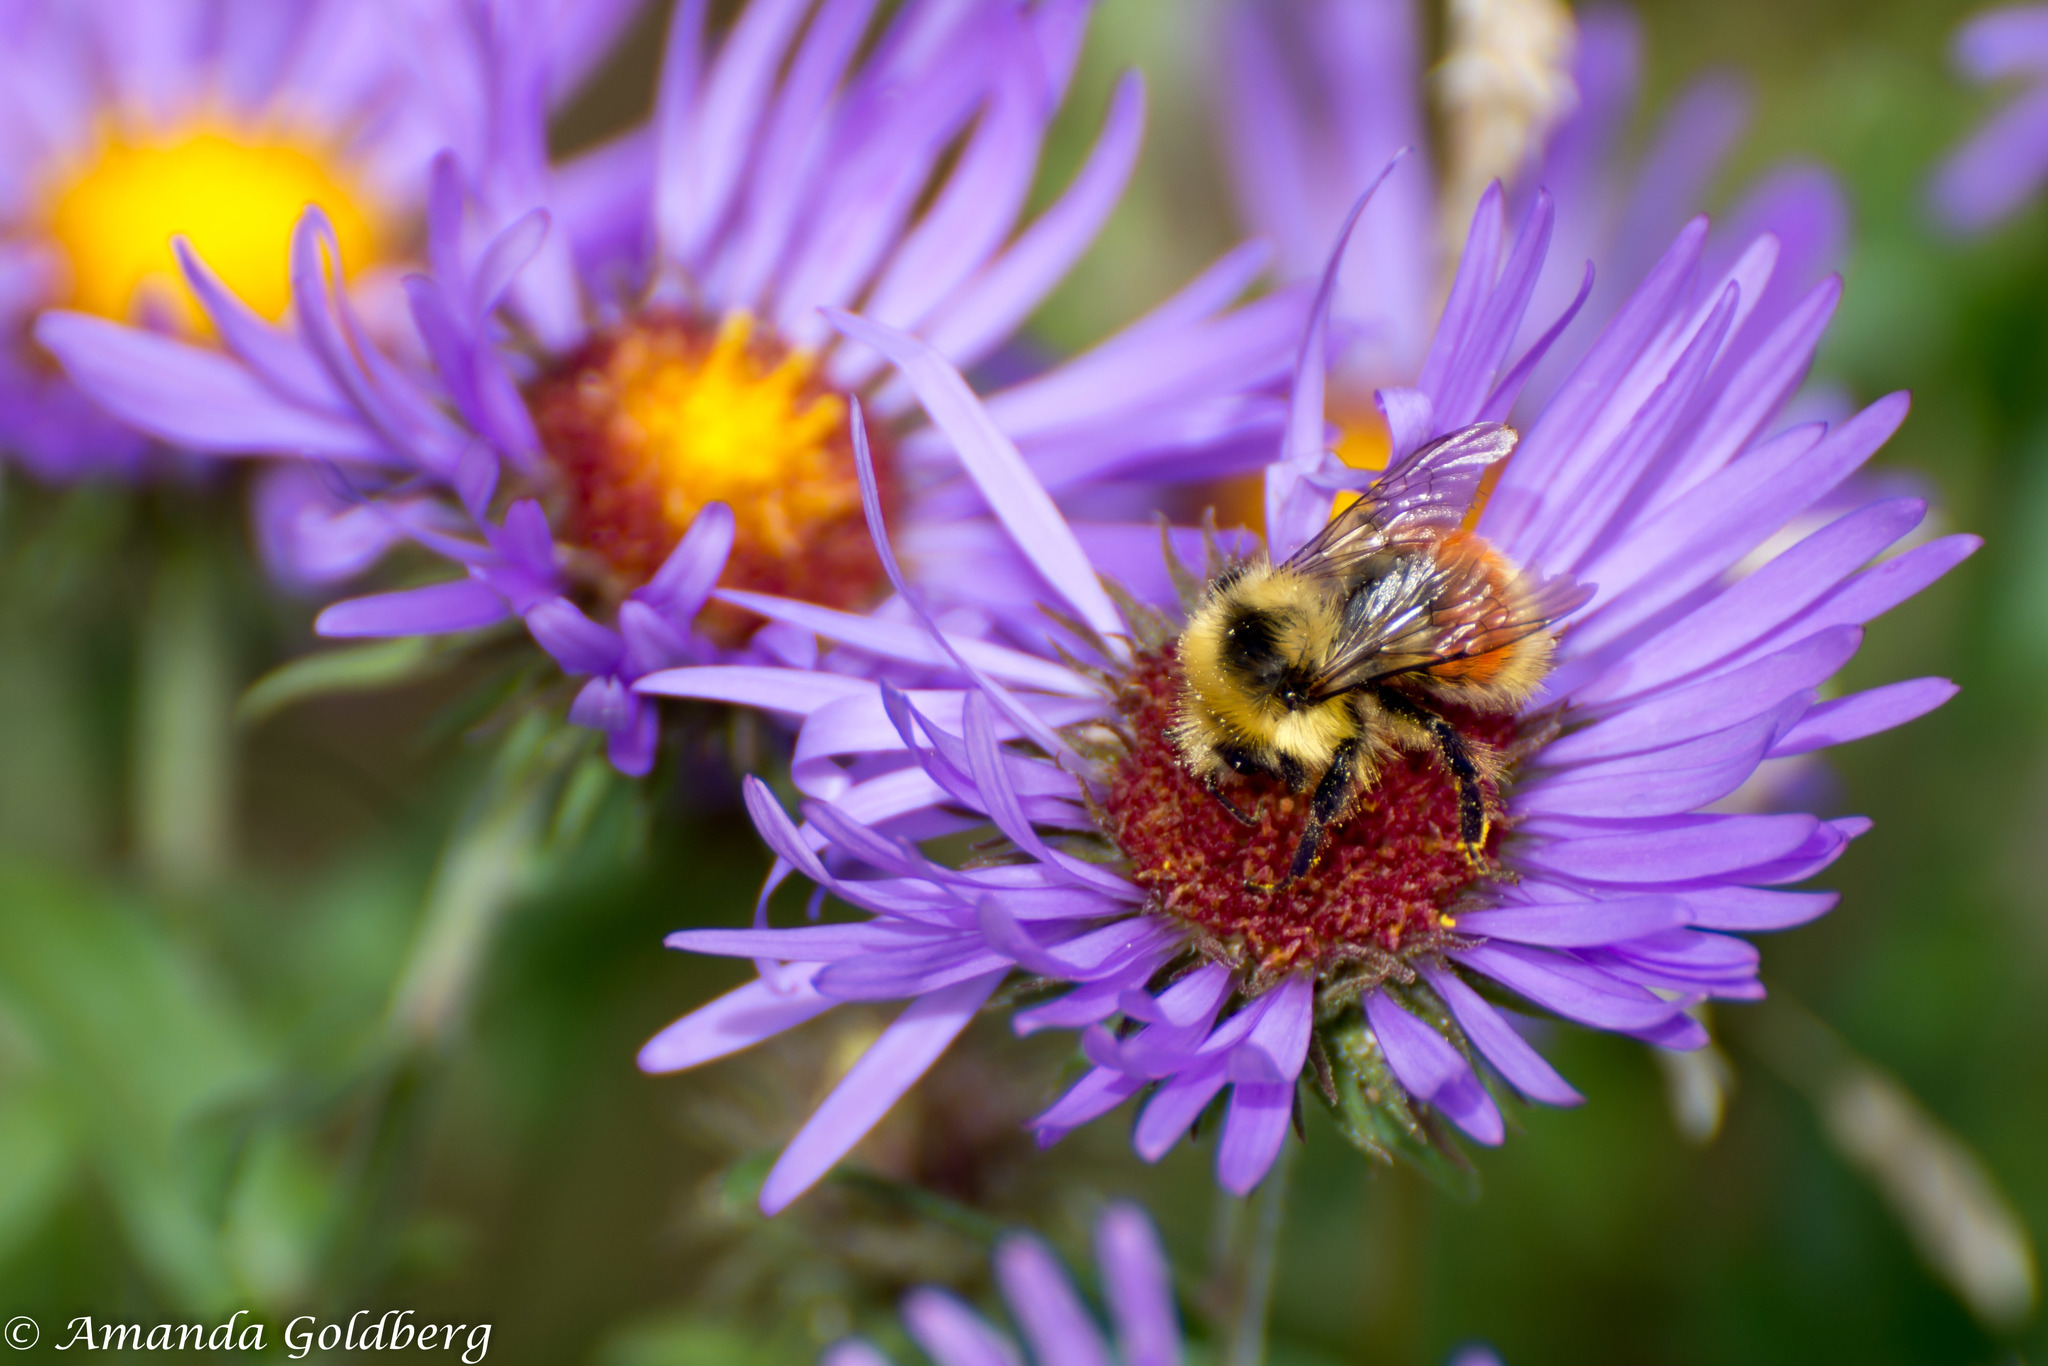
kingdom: Animalia
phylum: Arthropoda
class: Insecta
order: Hymenoptera
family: Apidae
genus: Pyrobombus
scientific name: Pyrobombus
